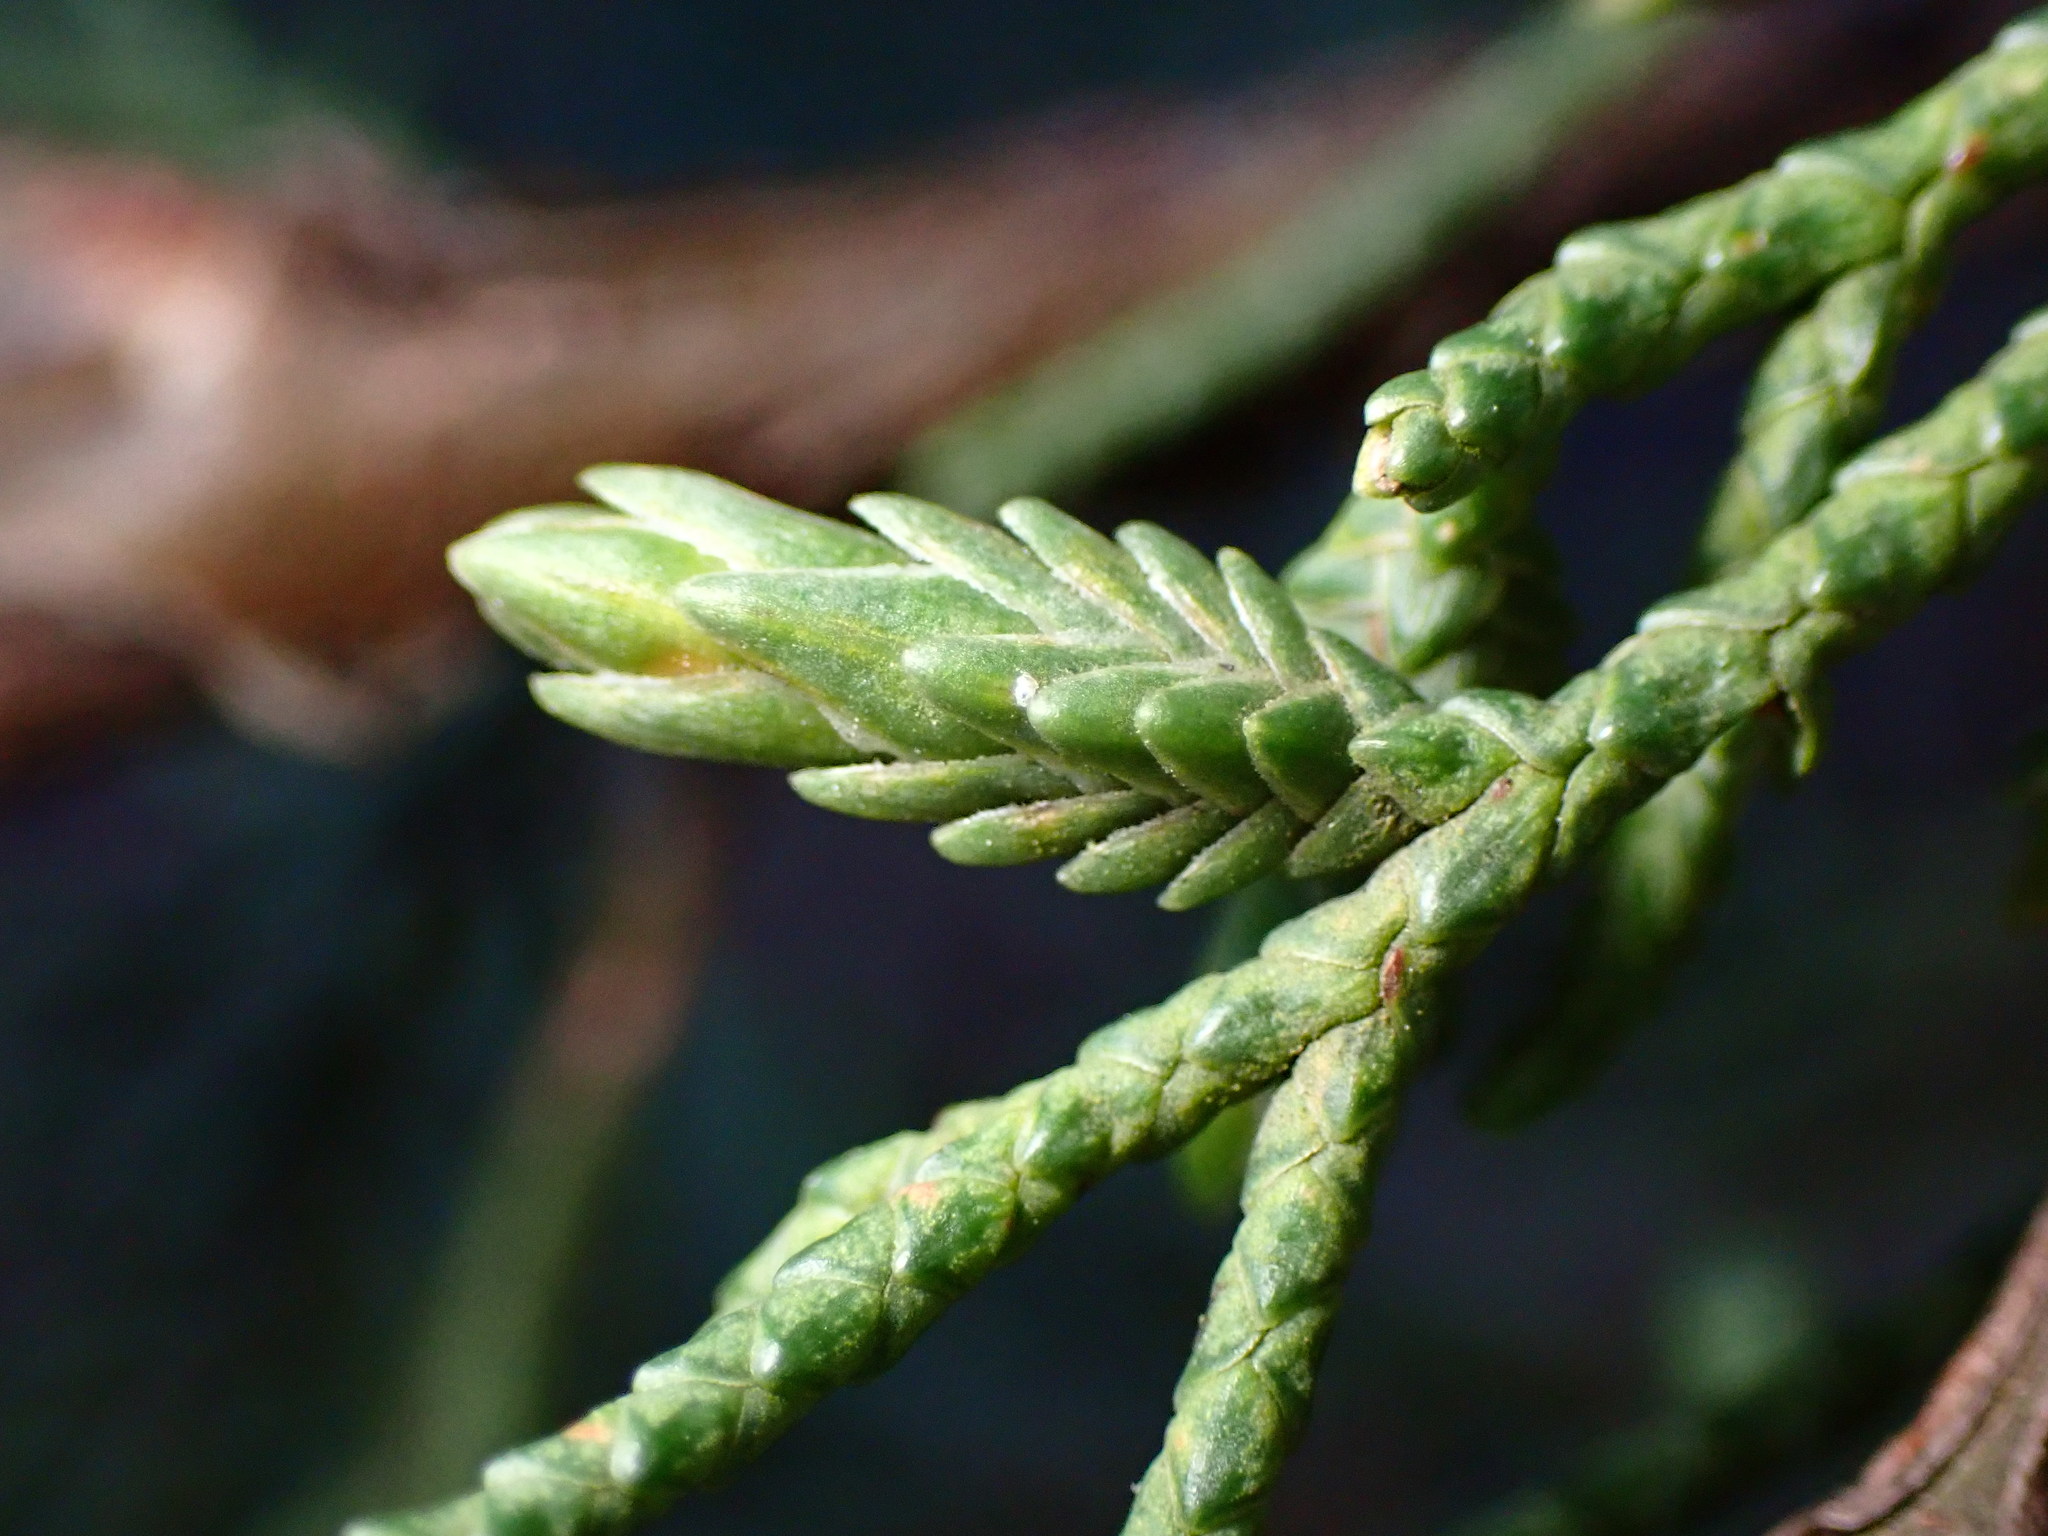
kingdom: Animalia
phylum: Arthropoda
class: Insecta
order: Diptera
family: Cecidomyiidae
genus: Oligotrophus
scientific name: Oligotrophus cupressi
